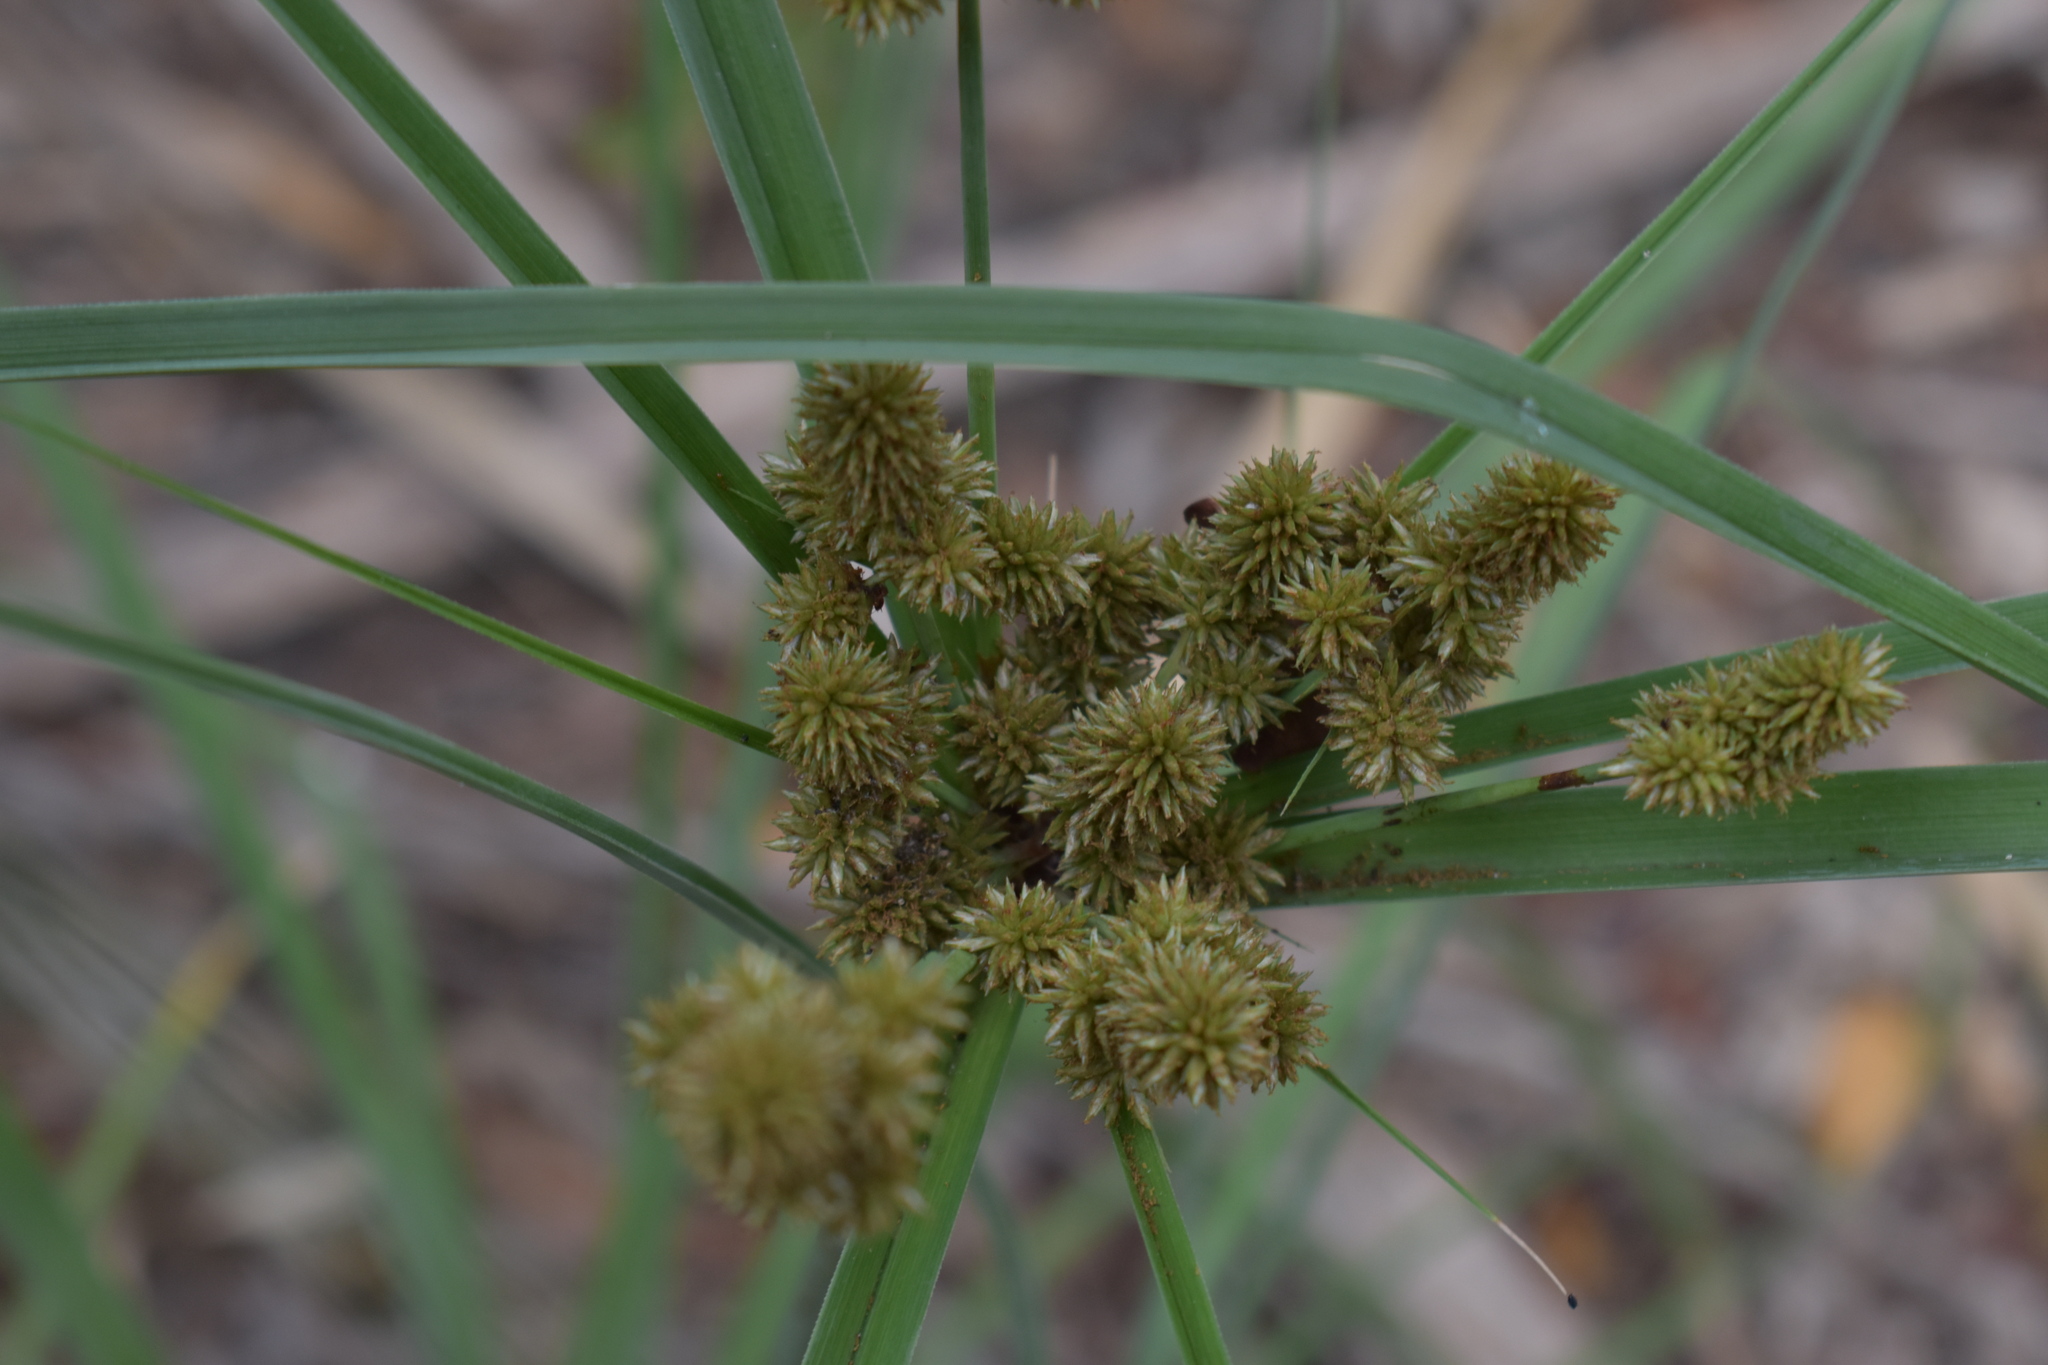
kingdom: Plantae
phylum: Tracheophyta
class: Liliopsida
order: Poales
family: Cyperaceae
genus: Cyperus
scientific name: Cyperus ligularis
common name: Swamp flat sedge
